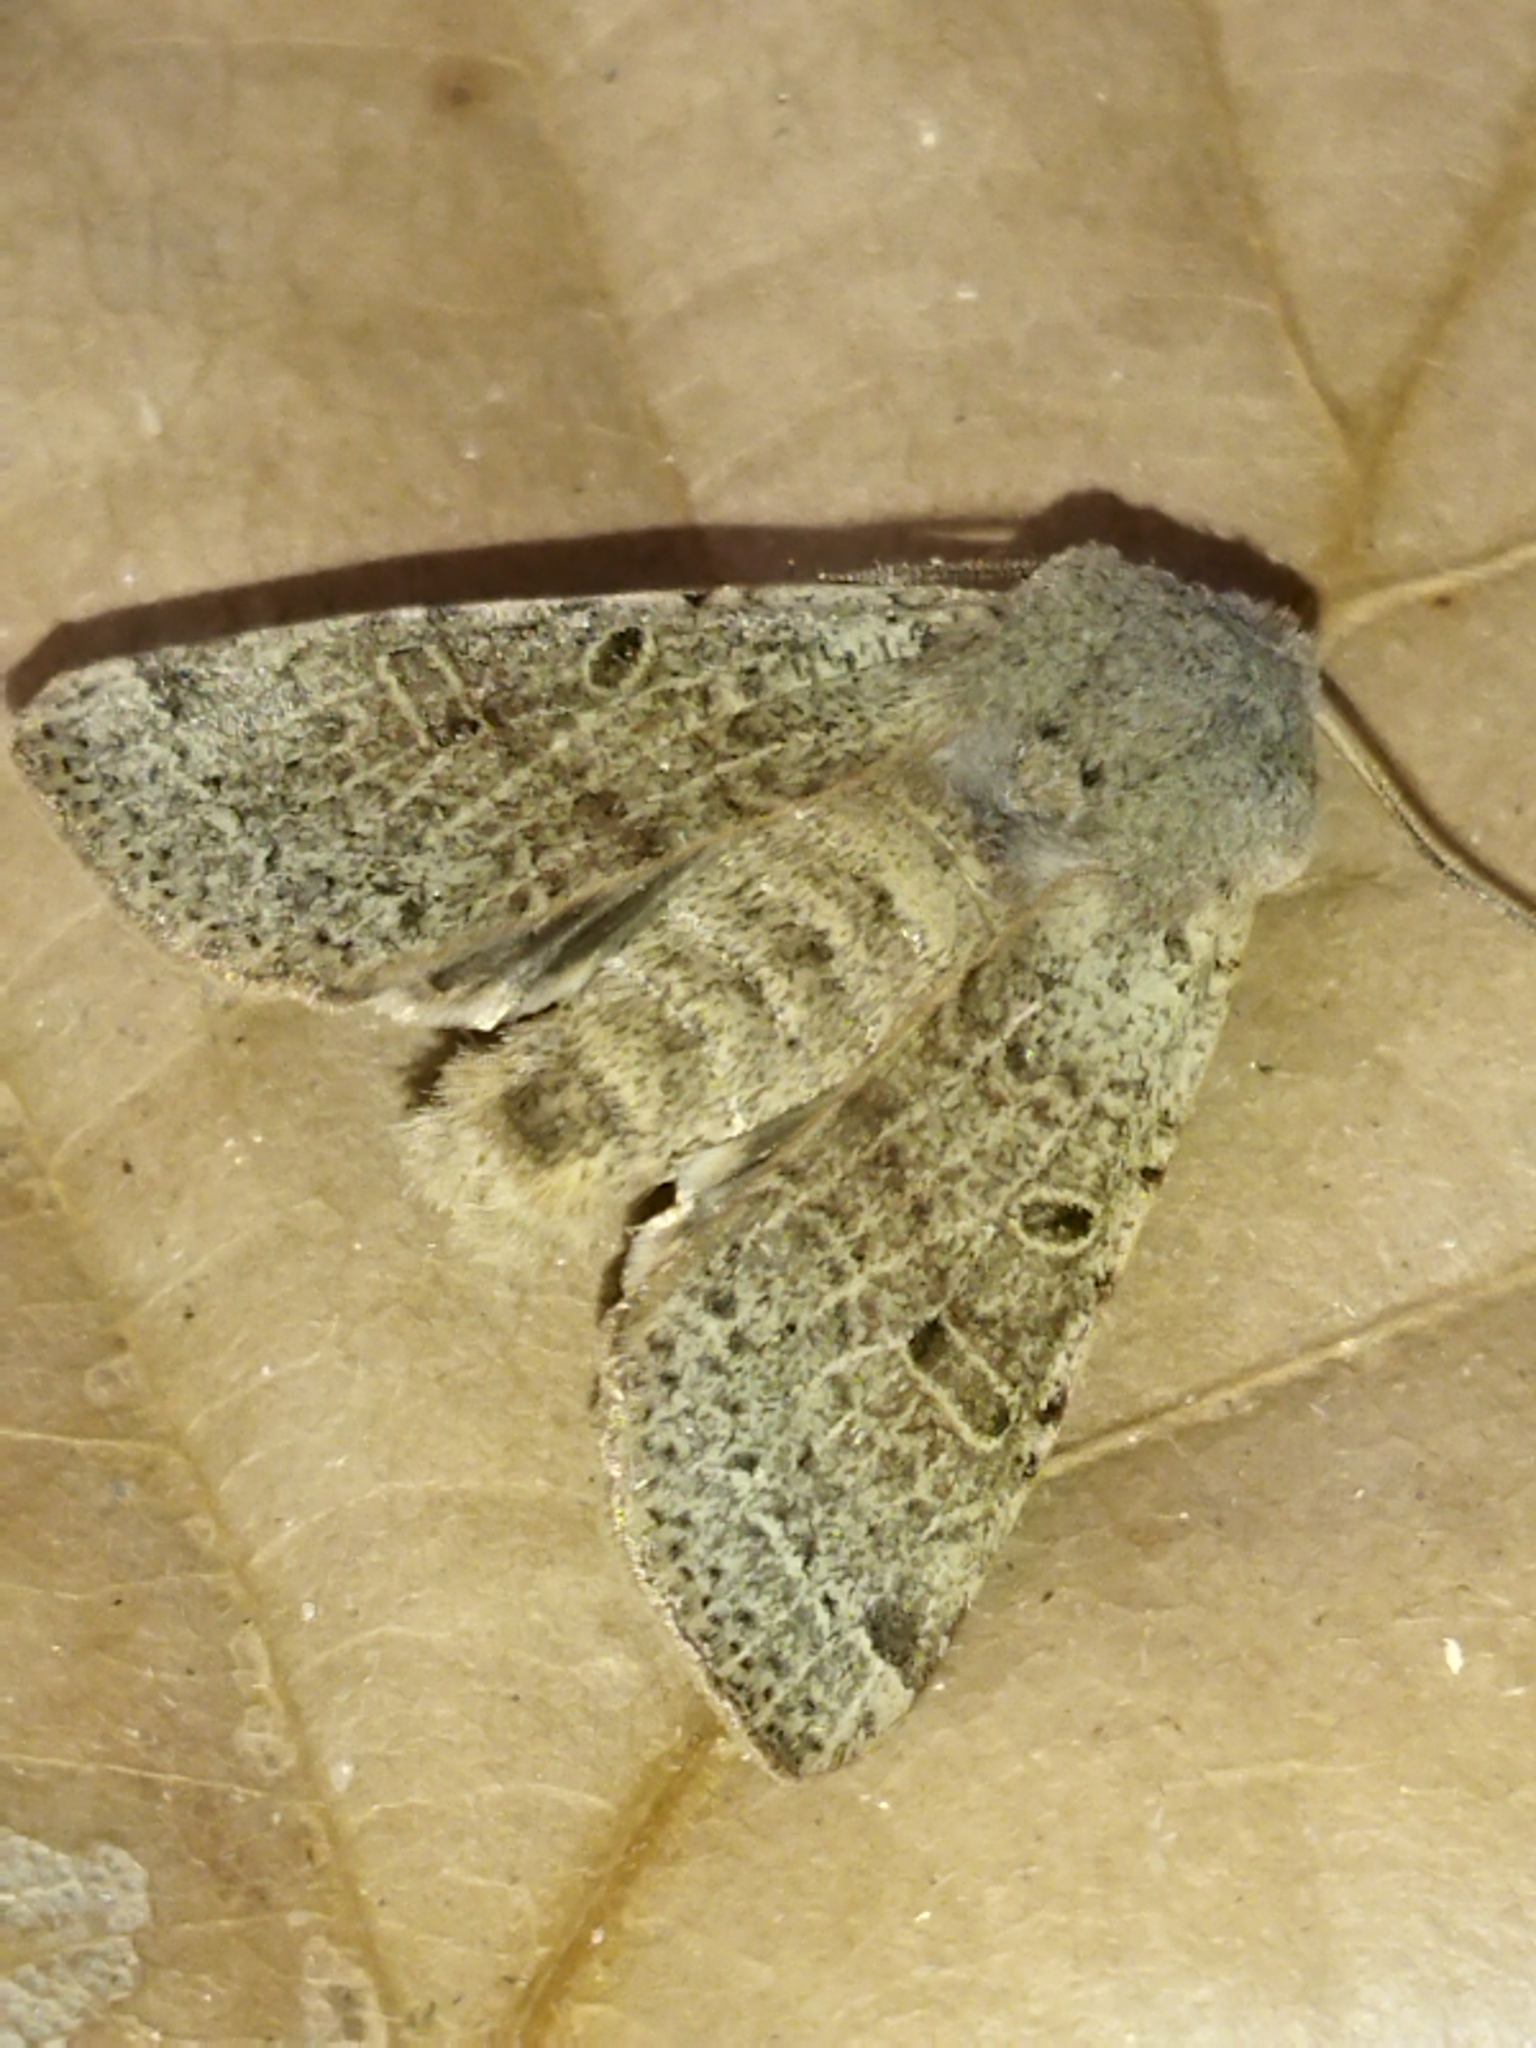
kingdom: Animalia
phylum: Arthropoda
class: Insecta
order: Lepidoptera
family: Noctuidae
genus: Agrochola
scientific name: Agrochola lychnidis
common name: Beaded chestnut
